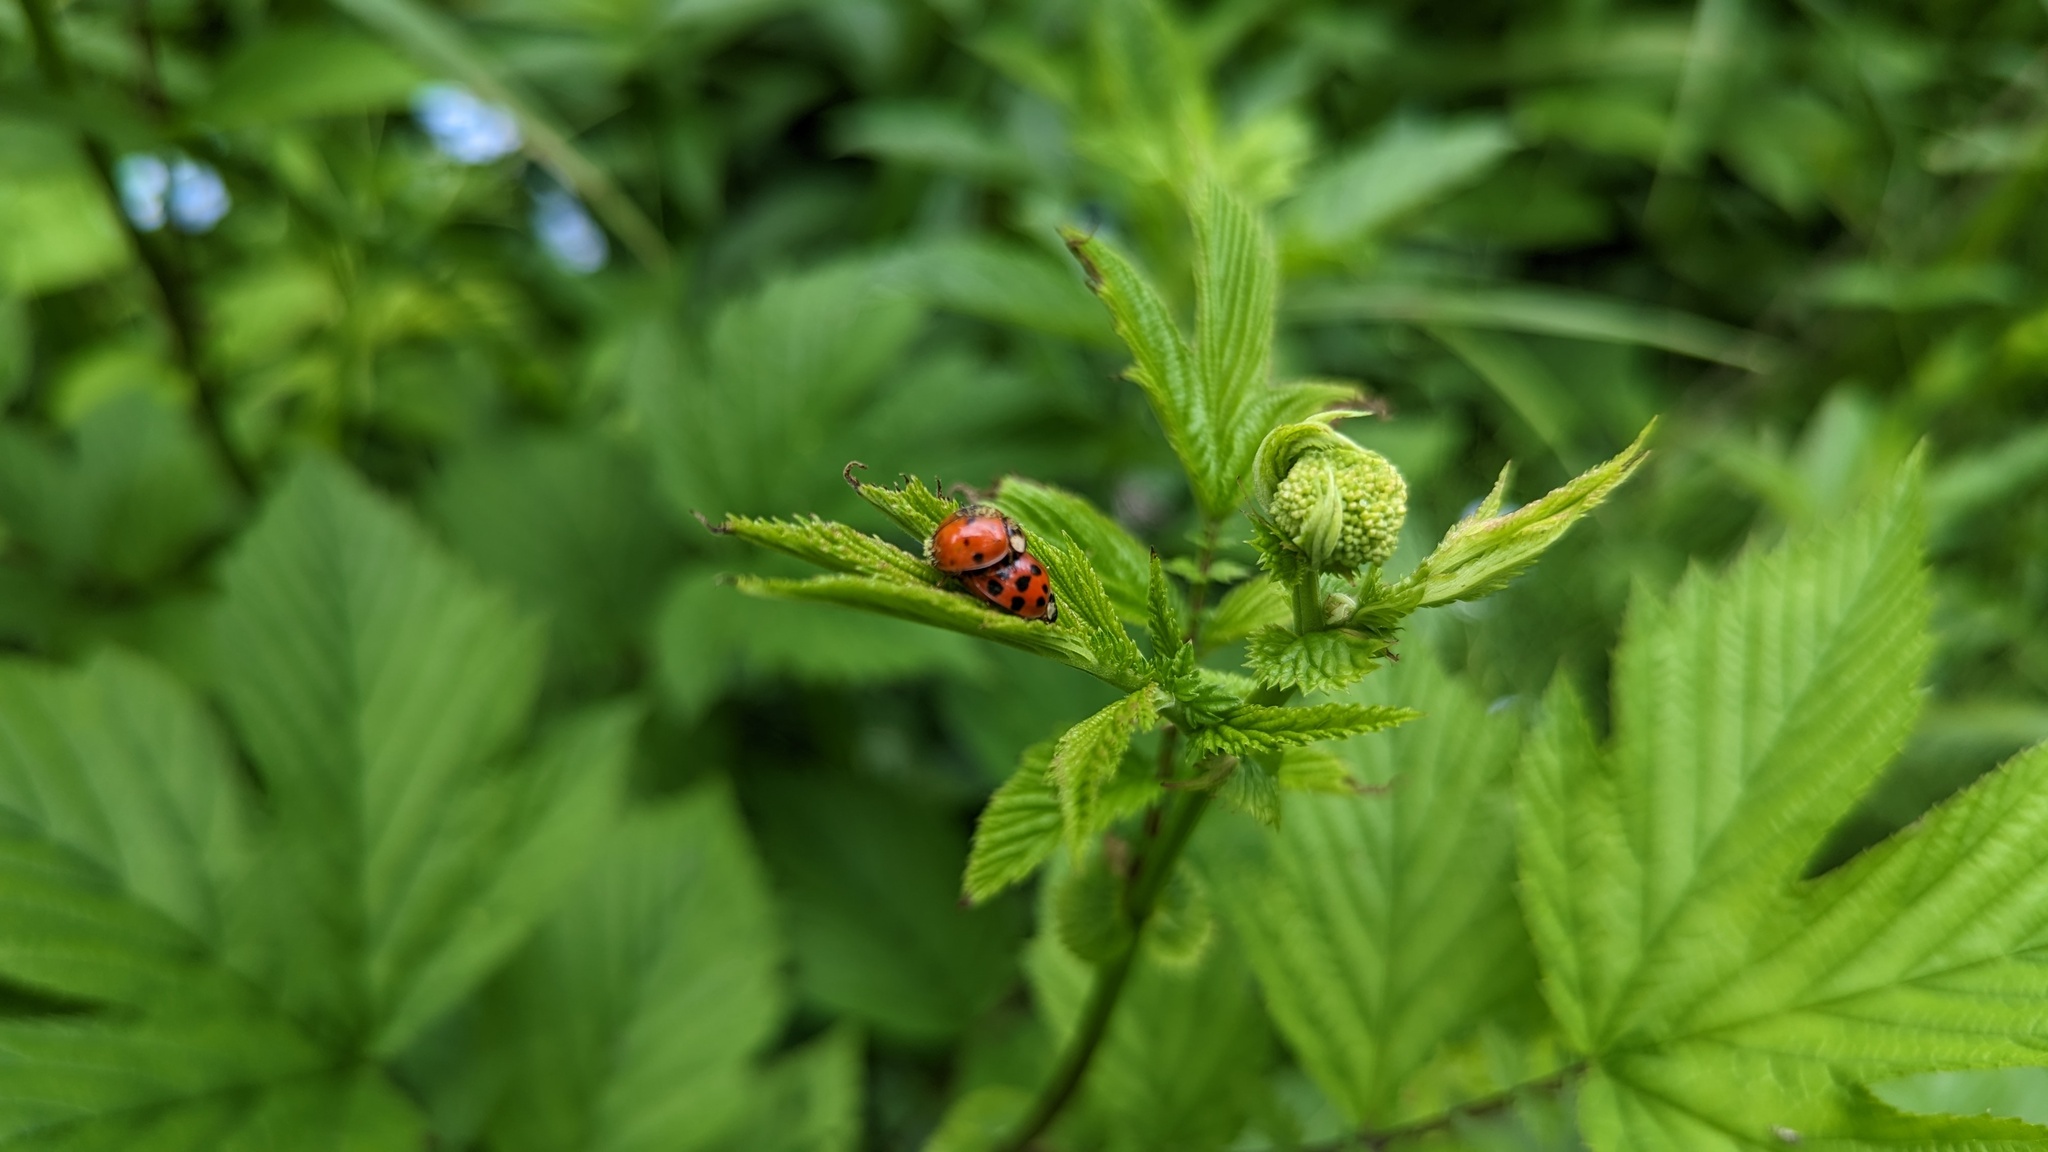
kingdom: Animalia
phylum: Arthropoda
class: Insecta
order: Coleoptera
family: Coccinellidae
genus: Harmonia
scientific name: Harmonia axyridis
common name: Harlequin ladybird
